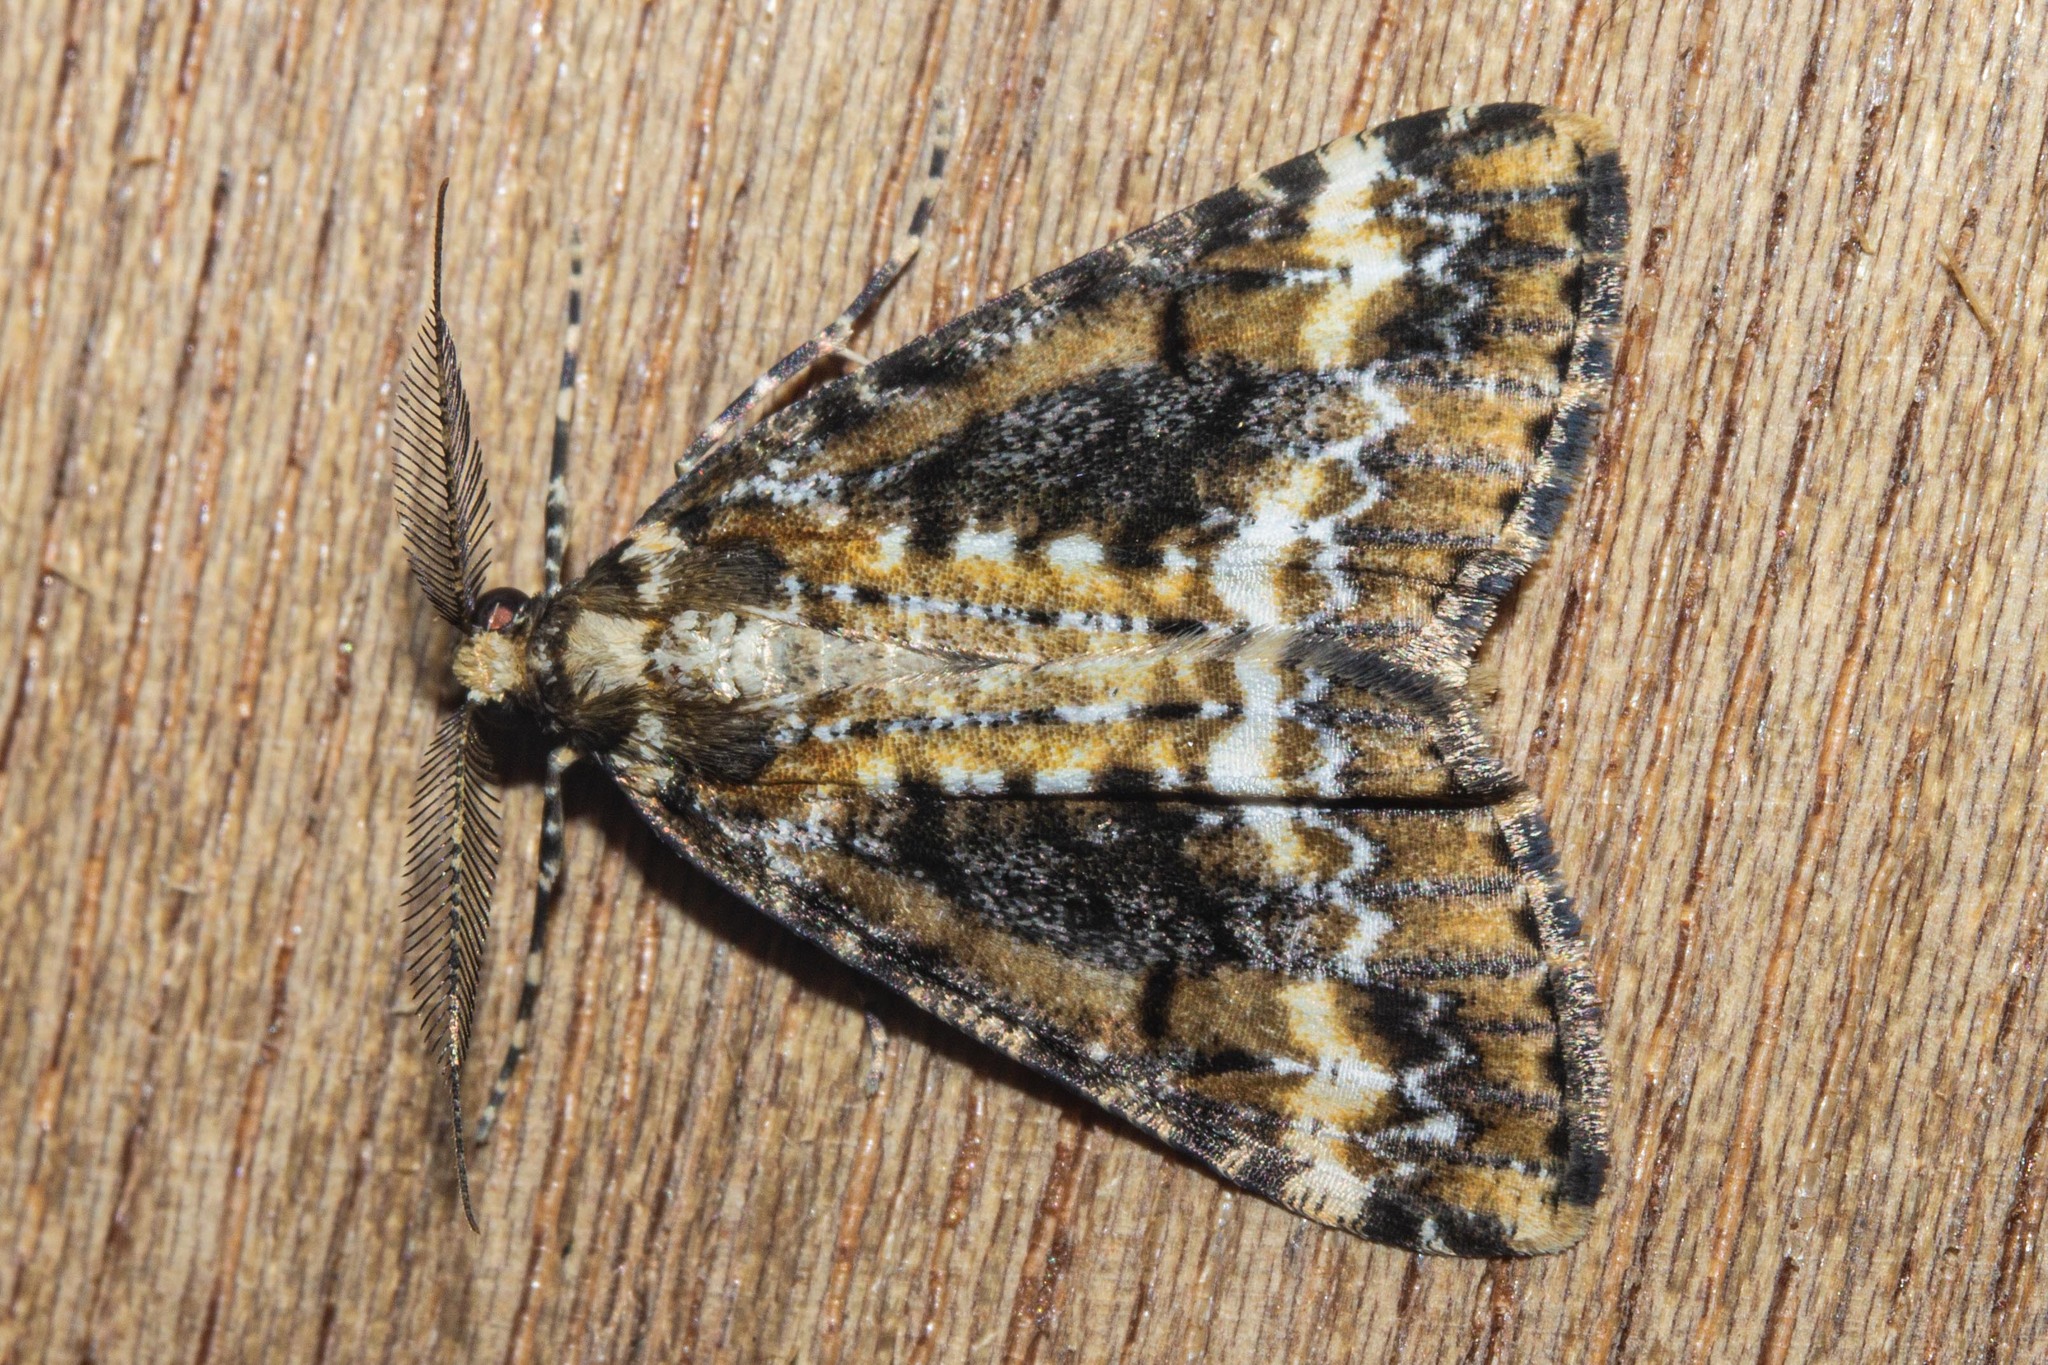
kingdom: Animalia
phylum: Arthropoda
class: Insecta
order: Lepidoptera
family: Geometridae
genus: Pseudocoremia
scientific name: Pseudocoremia leucelaea
